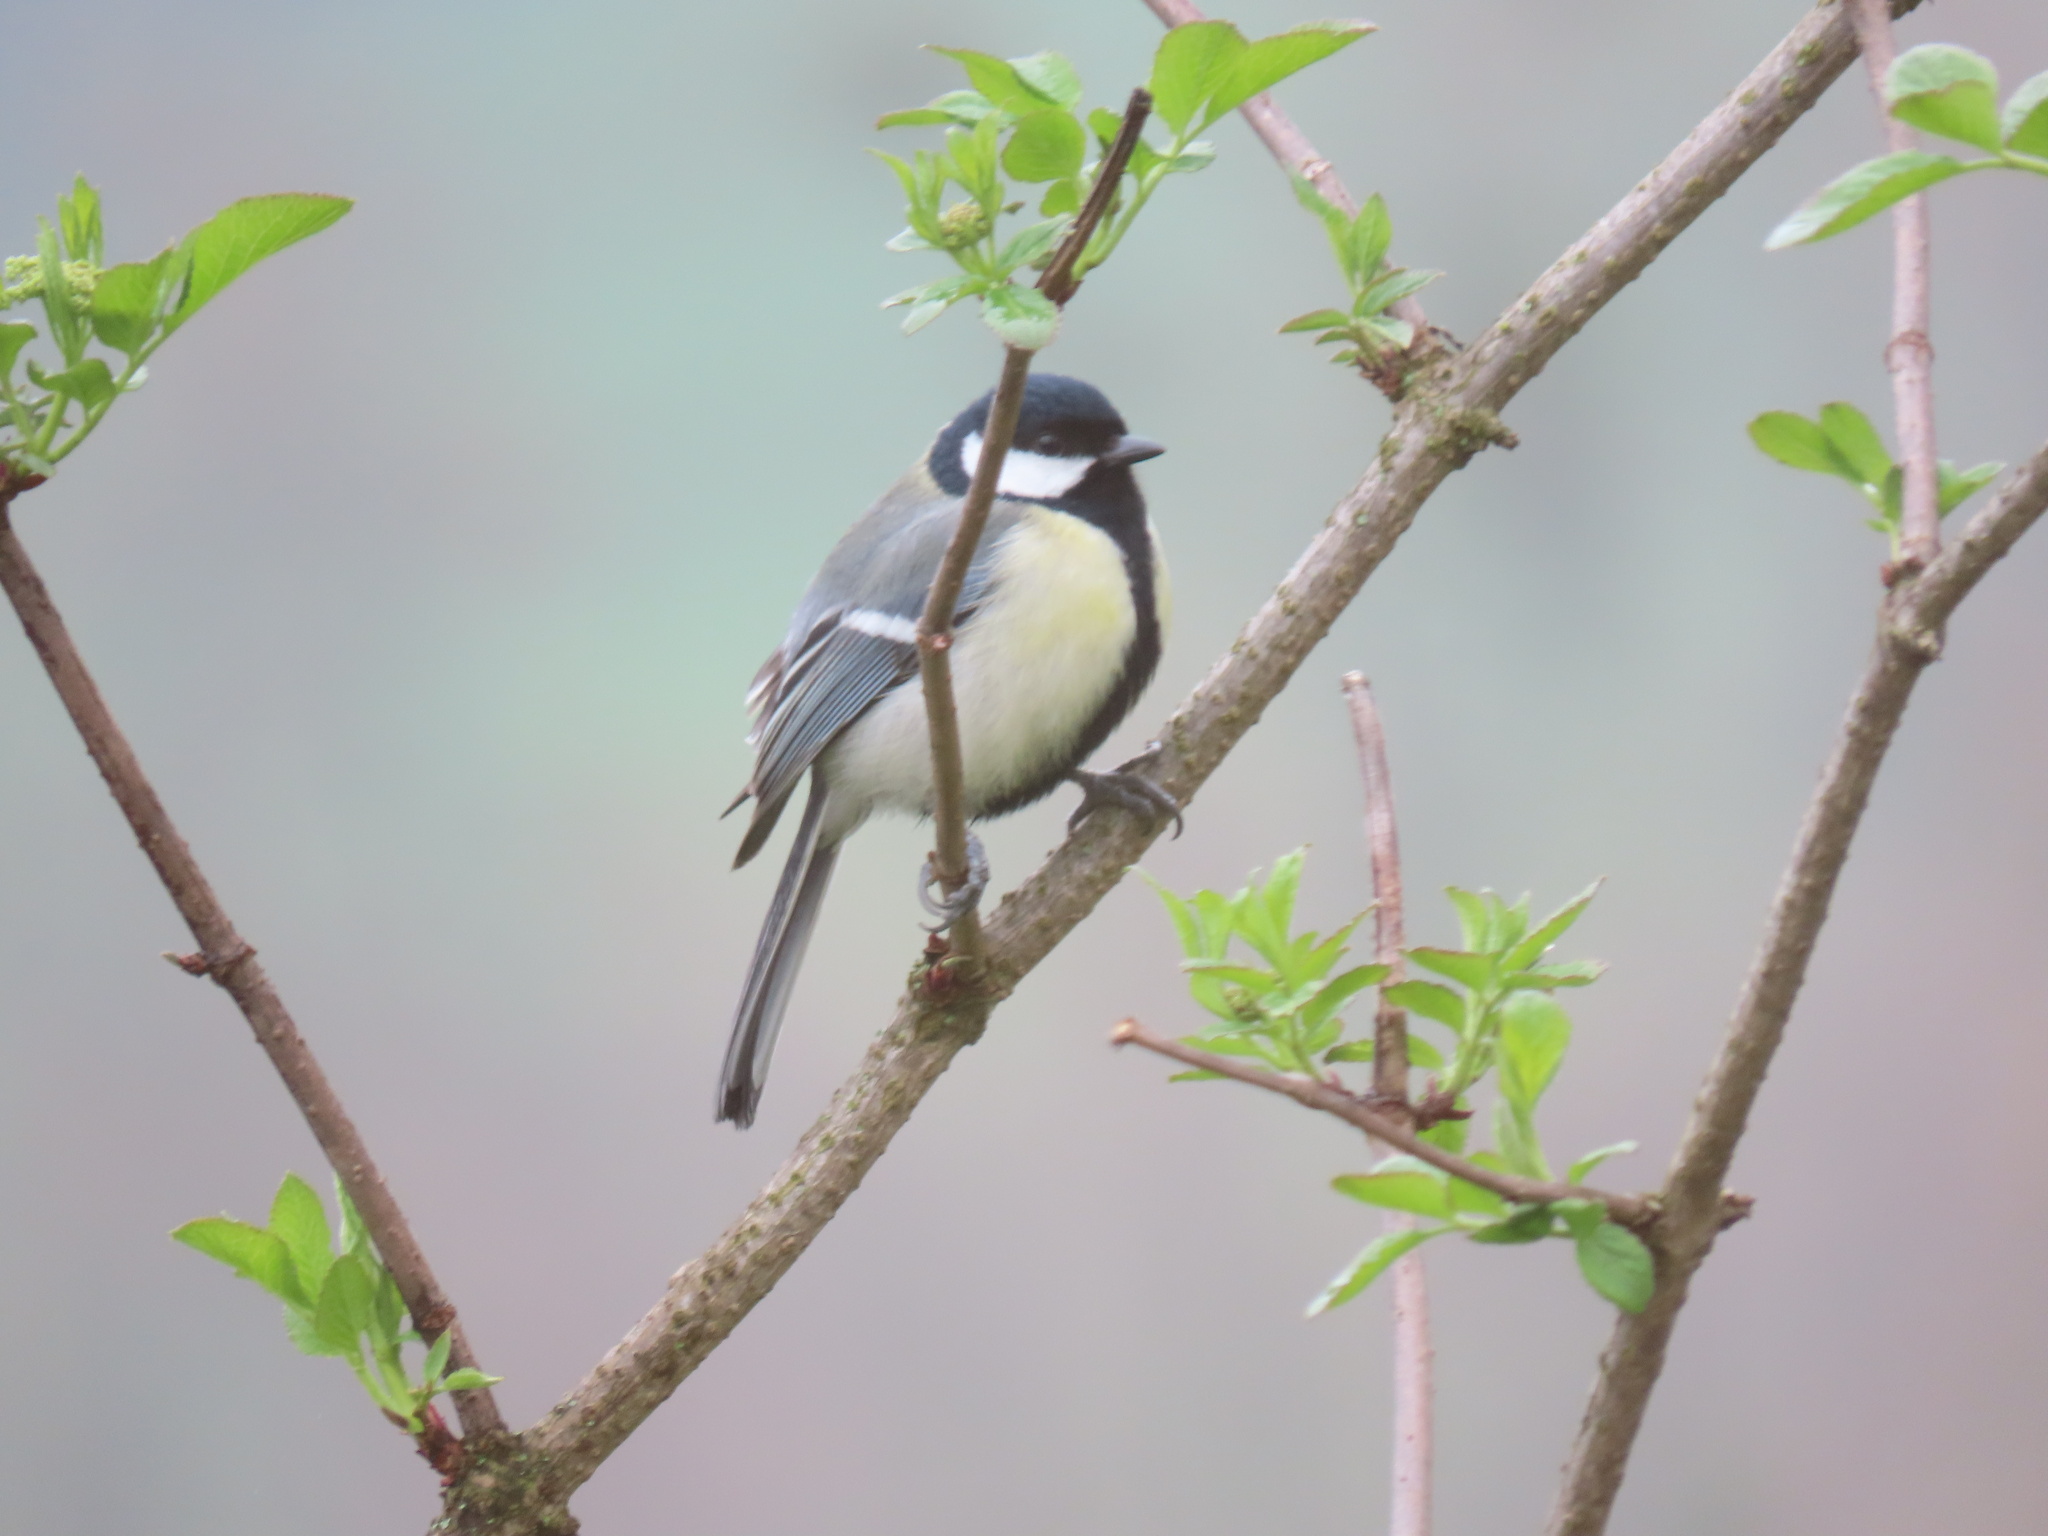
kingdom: Animalia
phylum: Chordata
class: Aves
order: Passeriformes
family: Paridae
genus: Parus
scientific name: Parus major
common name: Great tit
